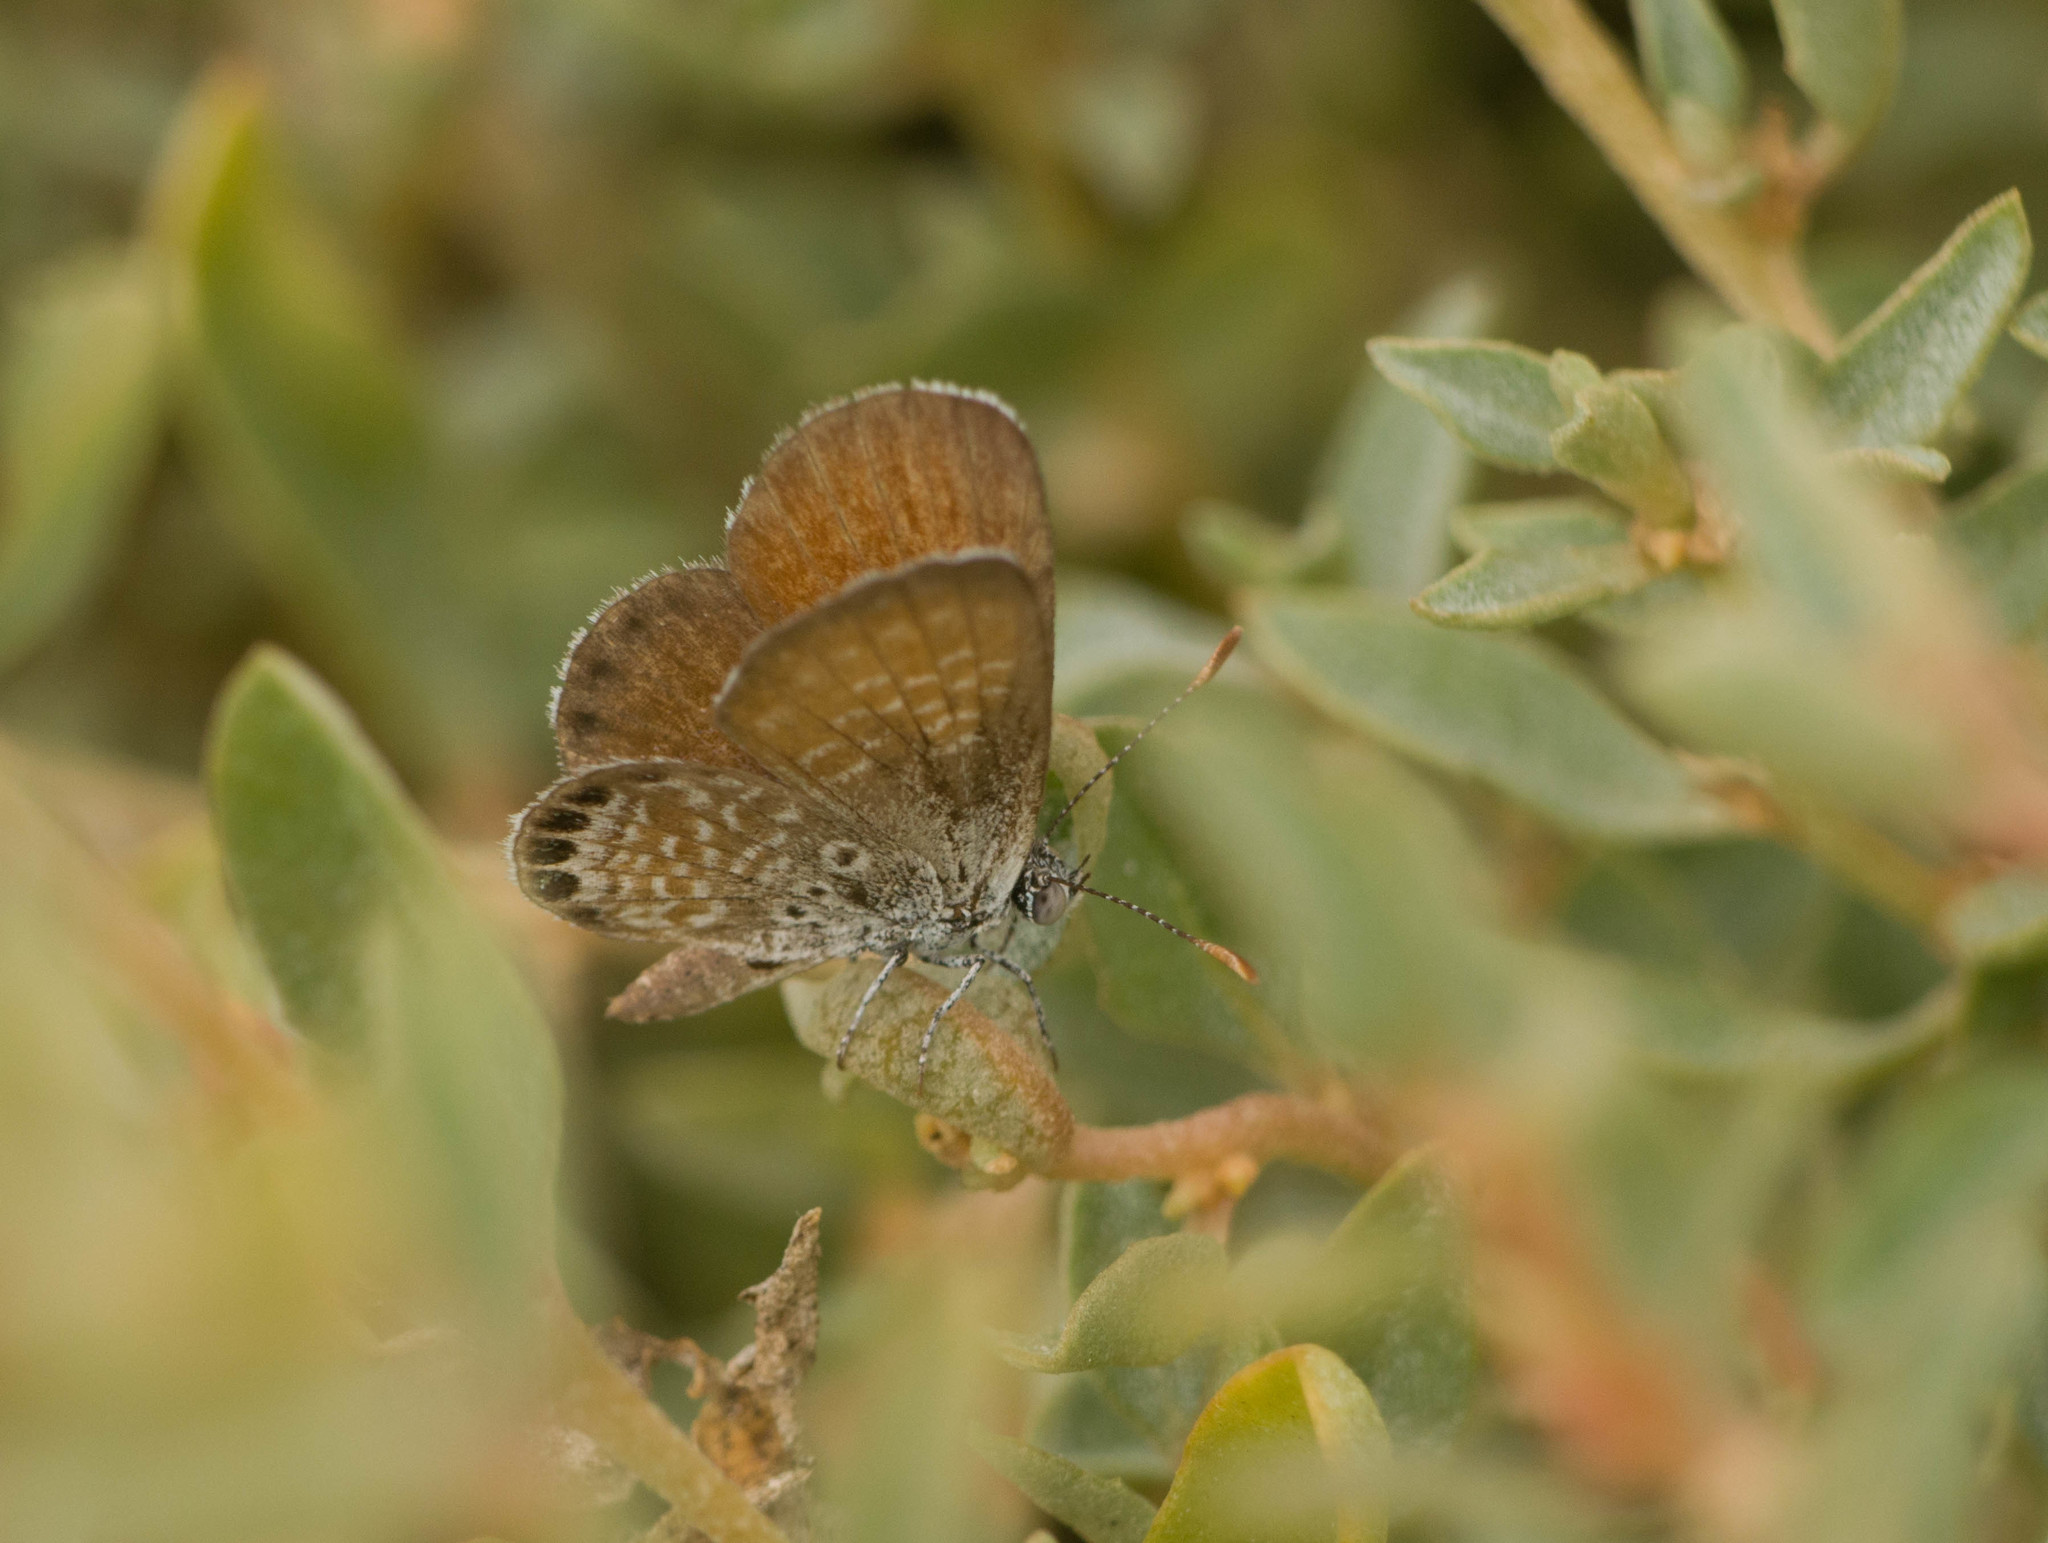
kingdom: Animalia
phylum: Arthropoda
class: Insecta
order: Lepidoptera
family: Lycaenidae
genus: Brephidium
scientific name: Brephidium exilis
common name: Pygmy blue
